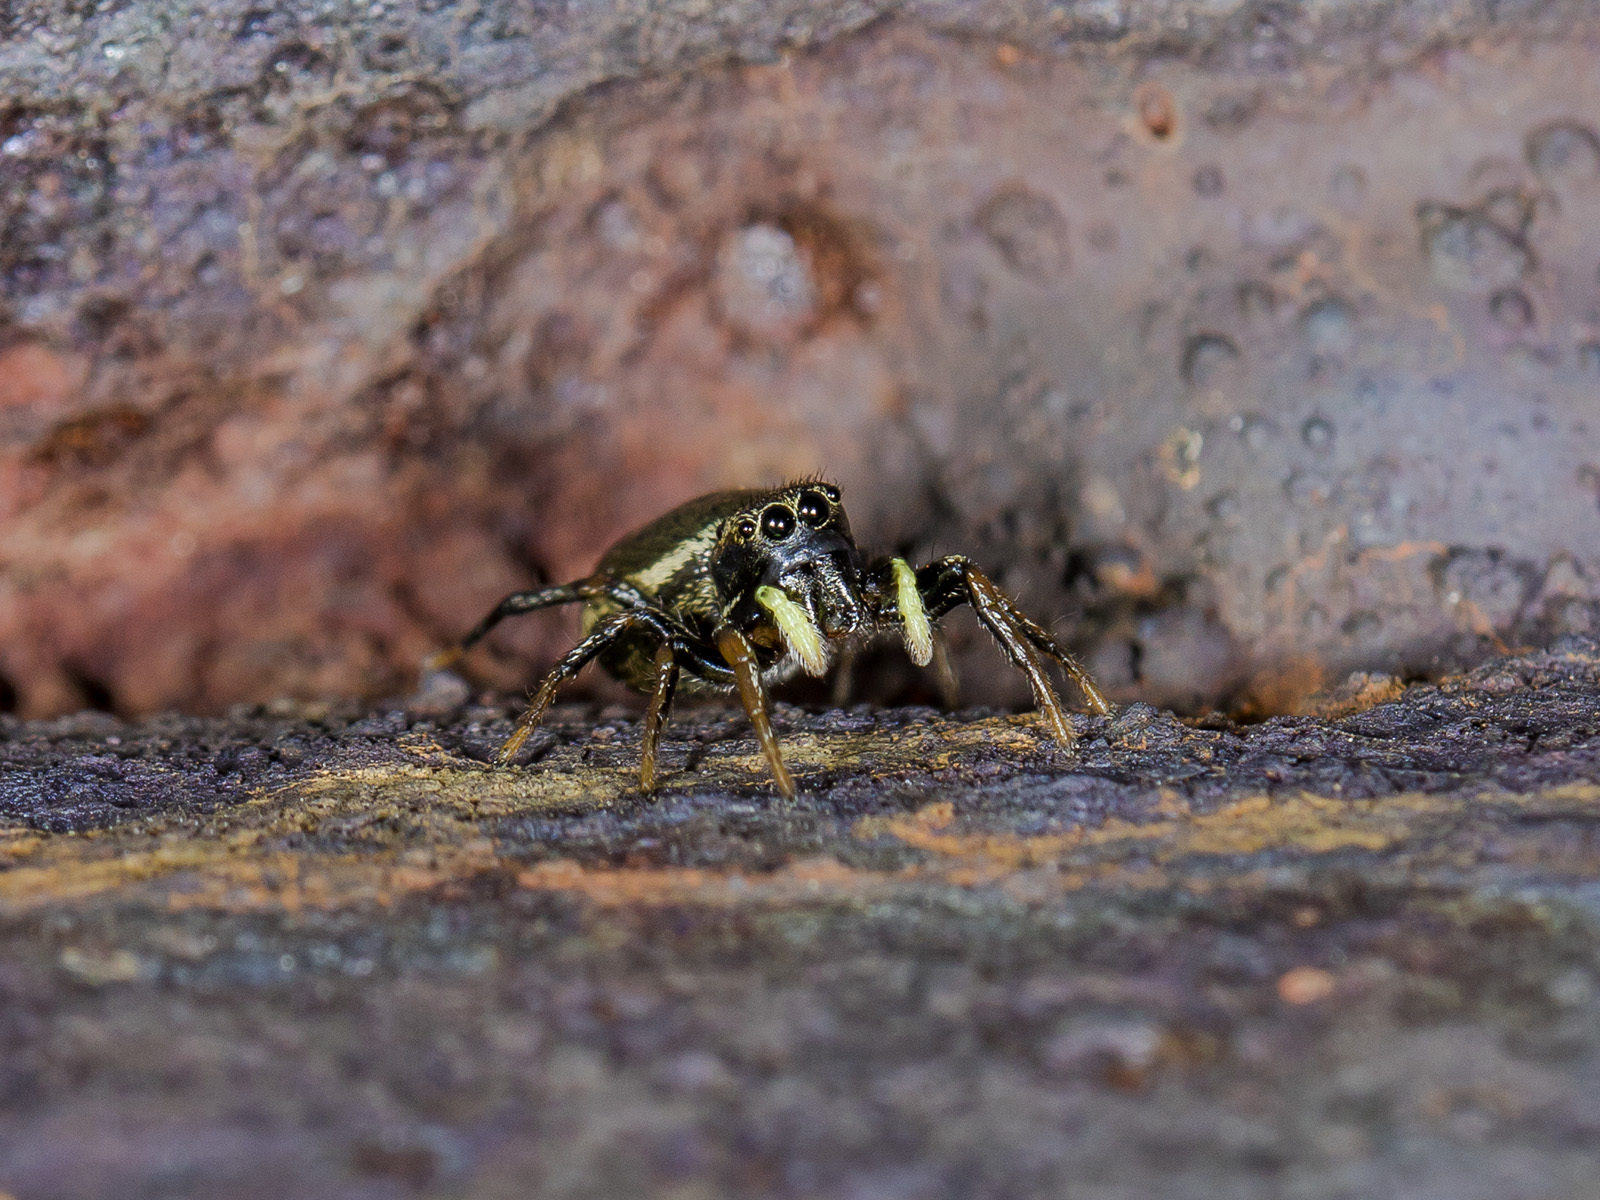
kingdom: Animalia
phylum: Arthropoda
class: Arachnida
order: Araneae
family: Salticidae
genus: Heliophanus
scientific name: Heliophanus auratus
